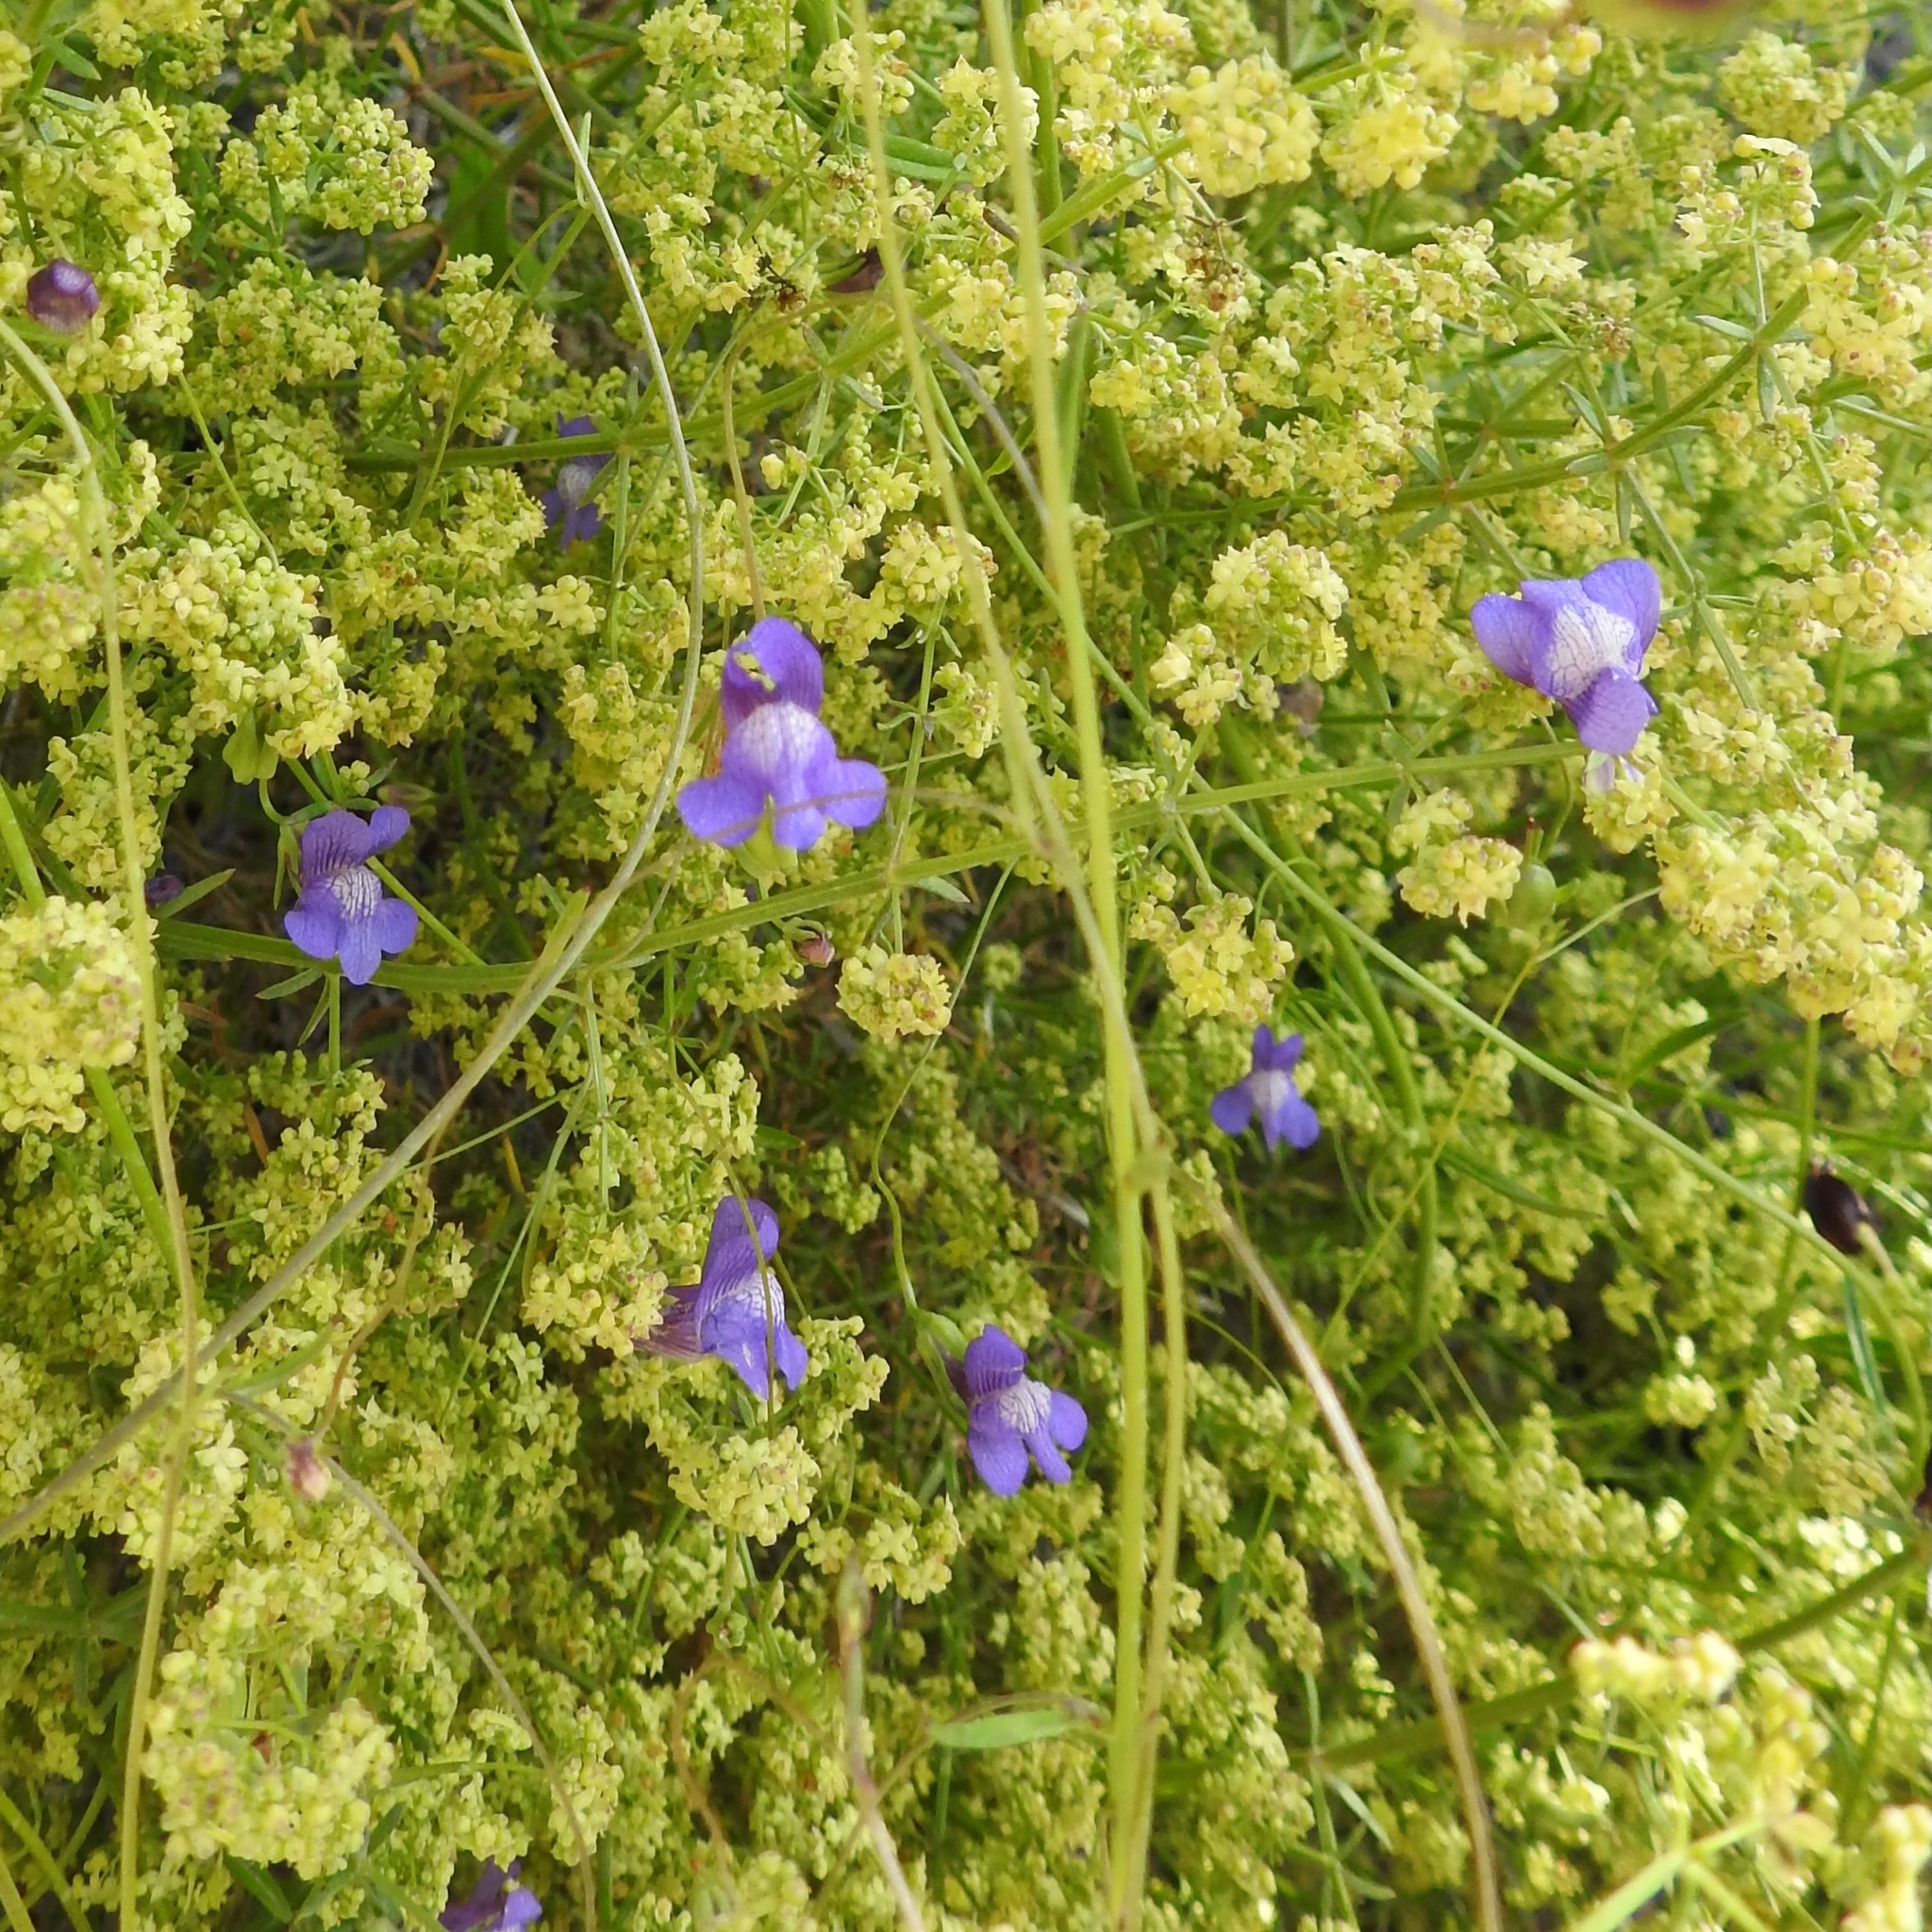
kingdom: Plantae
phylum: Tracheophyta
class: Magnoliopsida
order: Lamiales
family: Plantaginaceae
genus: Neogaerrhinum
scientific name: Neogaerrhinum strictum
